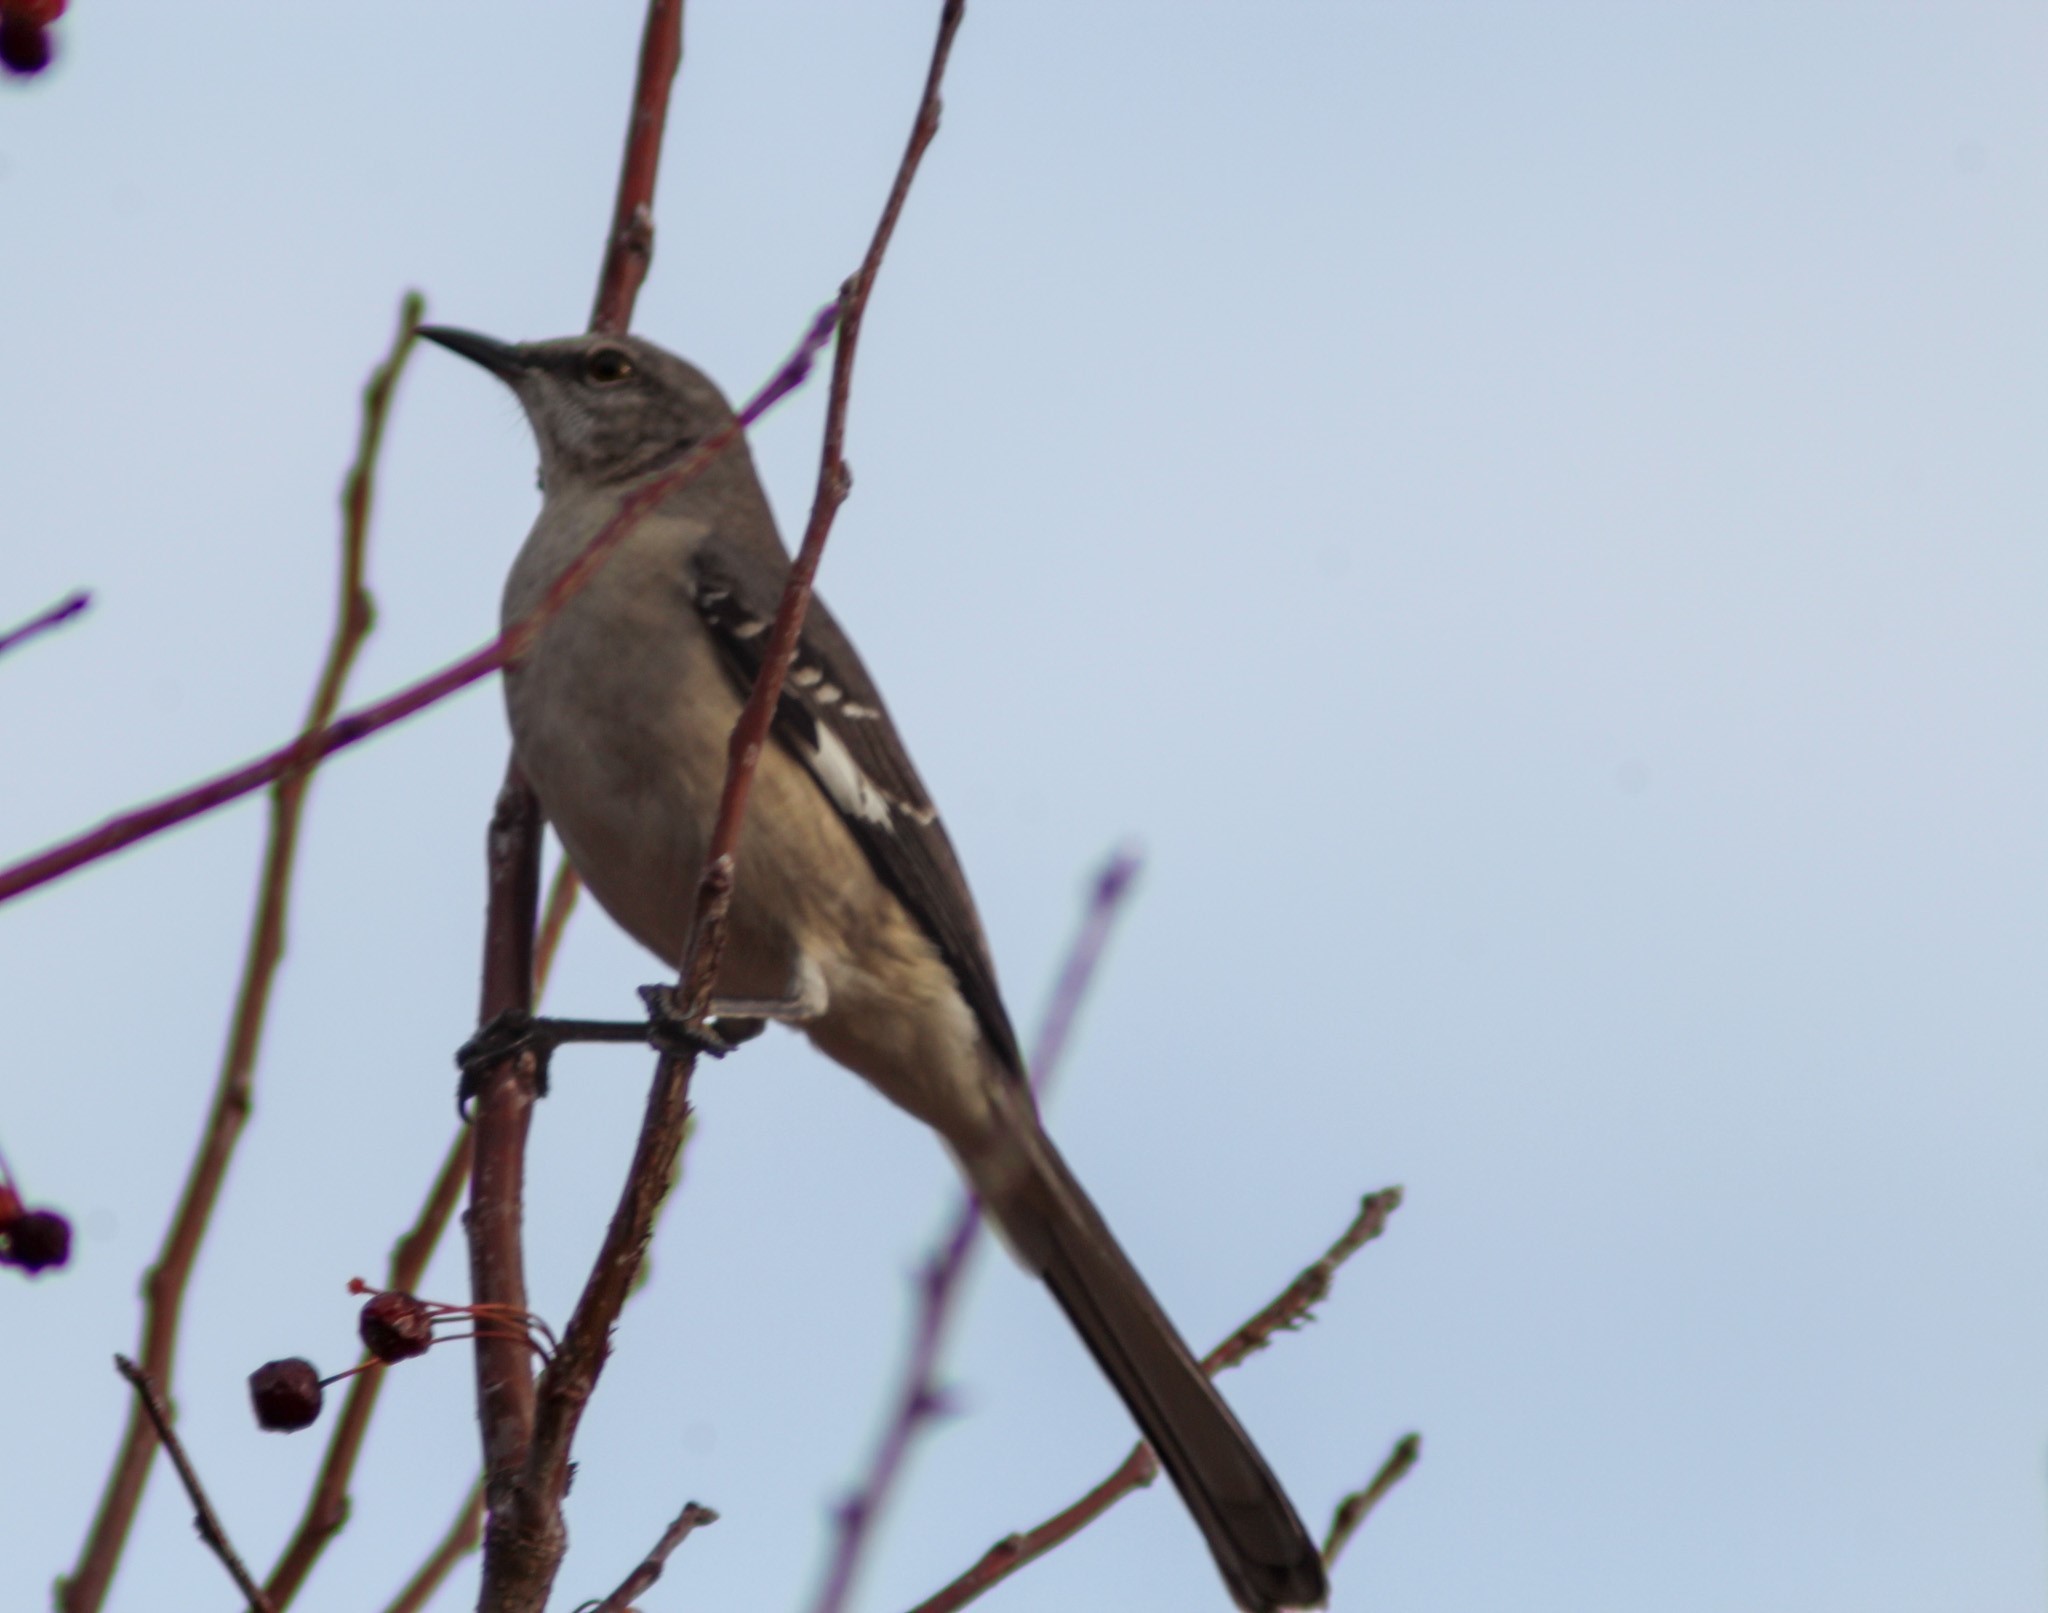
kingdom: Animalia
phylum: Chordata
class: Aves
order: Passeriformes
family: Mimidae
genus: Mimus
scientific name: Mimus polyglottos
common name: Northern mockingbird
